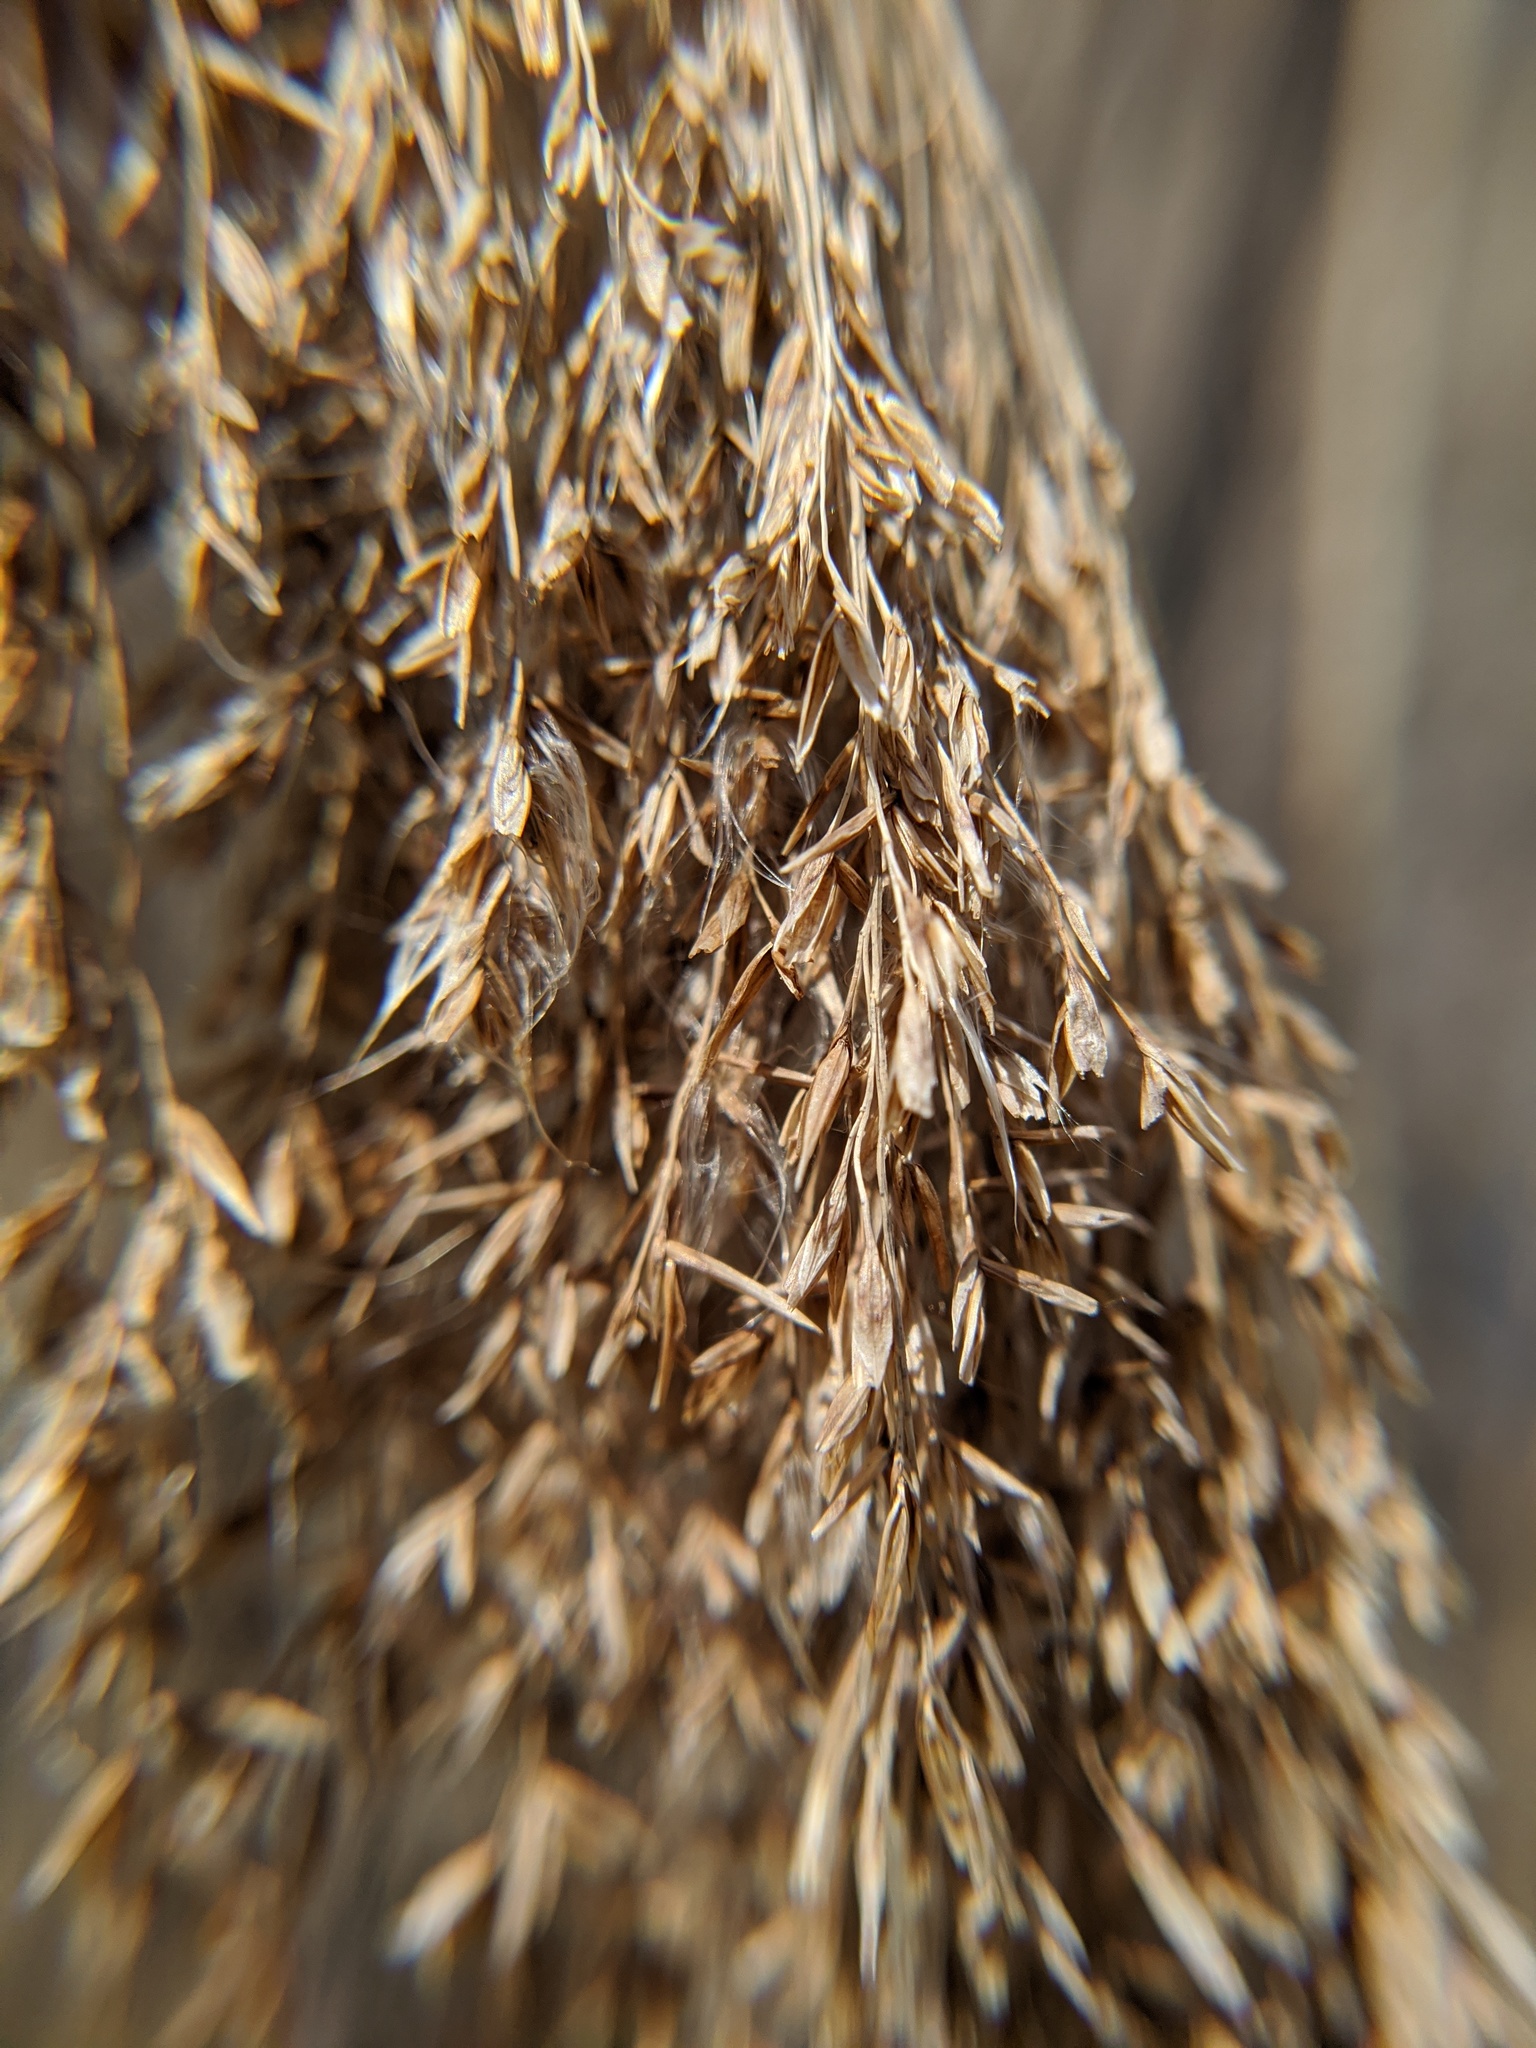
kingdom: Plantae
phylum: Tracheophyta
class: Liliopsida
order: Poales
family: Poaceae
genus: Phragmites
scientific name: Phragmites australis
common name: Common reed
